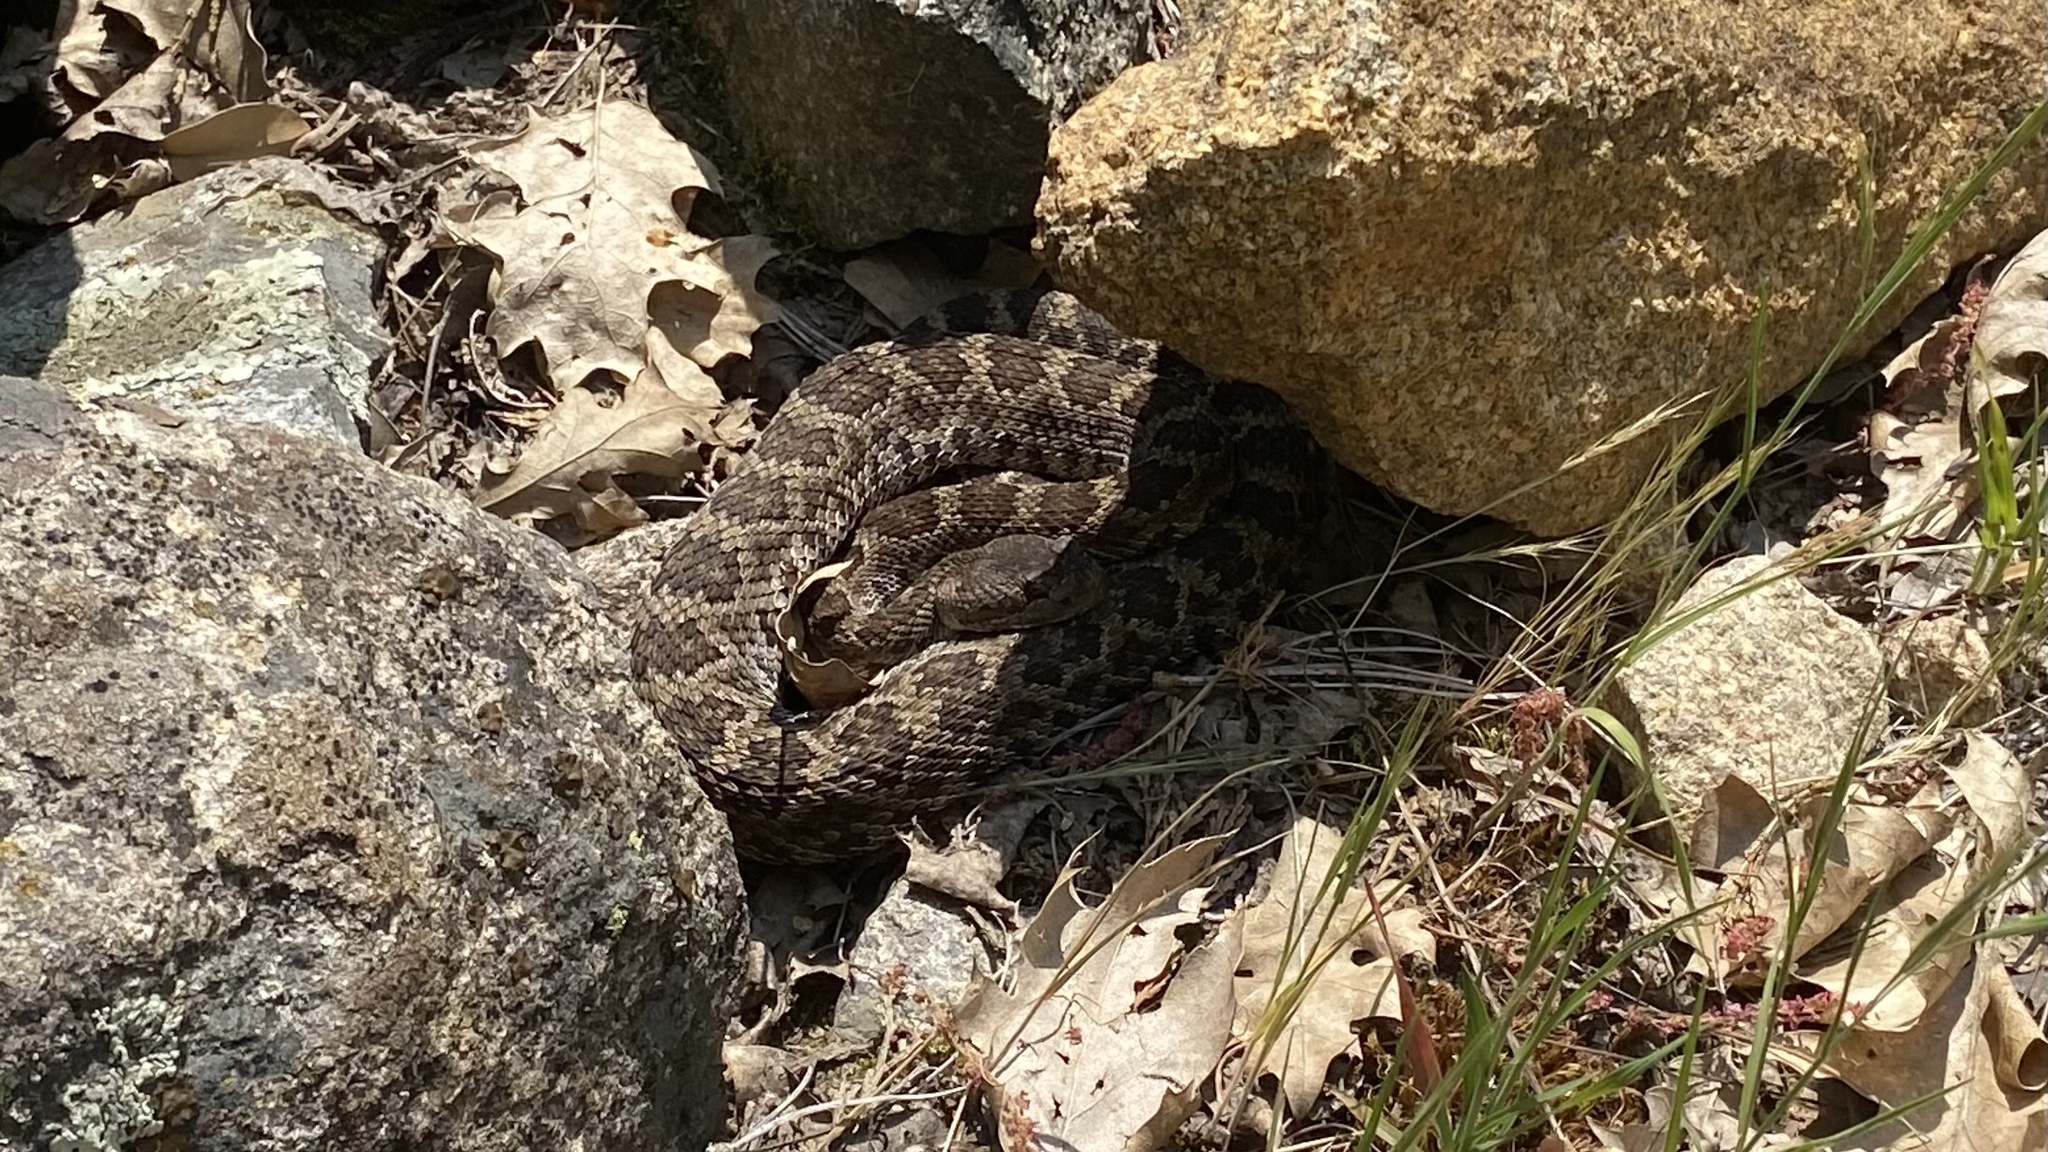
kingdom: Animalia
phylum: Chordata
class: Squamata
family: Viperidae
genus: Crotalus
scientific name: Crotalus oreganus
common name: Abyssus
